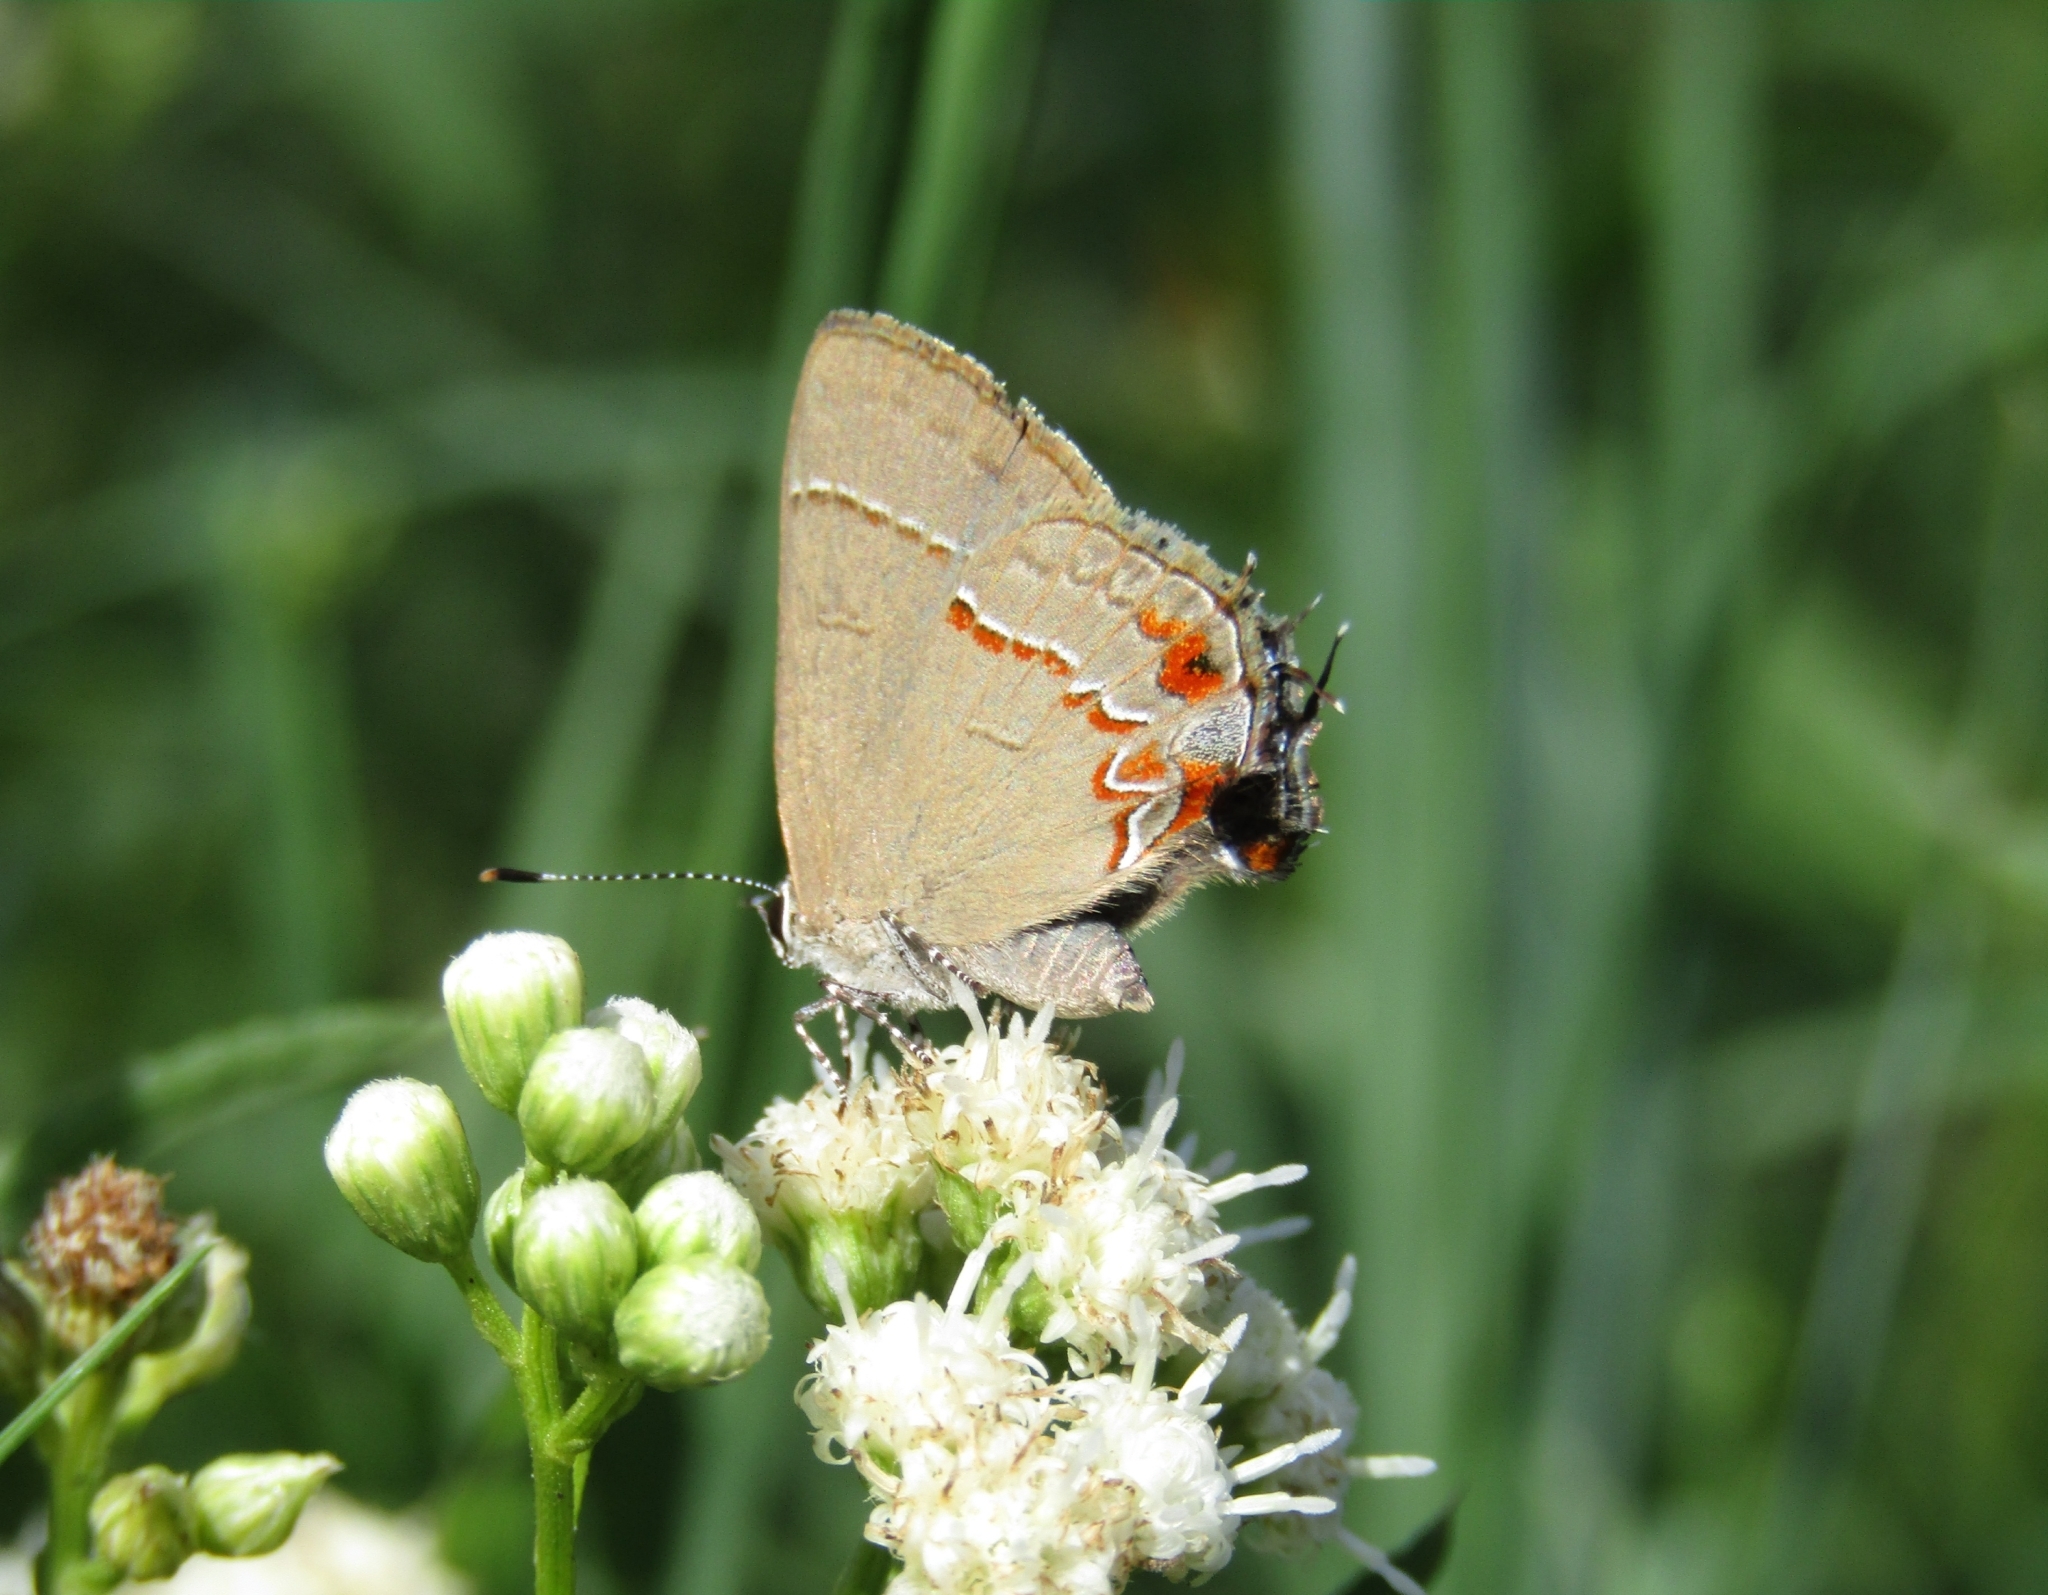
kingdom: Animalia
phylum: Arthropoda
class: Insecta
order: Lepidoptera
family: Lycaenidae
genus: Calycopis
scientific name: Calycopis caulonia
